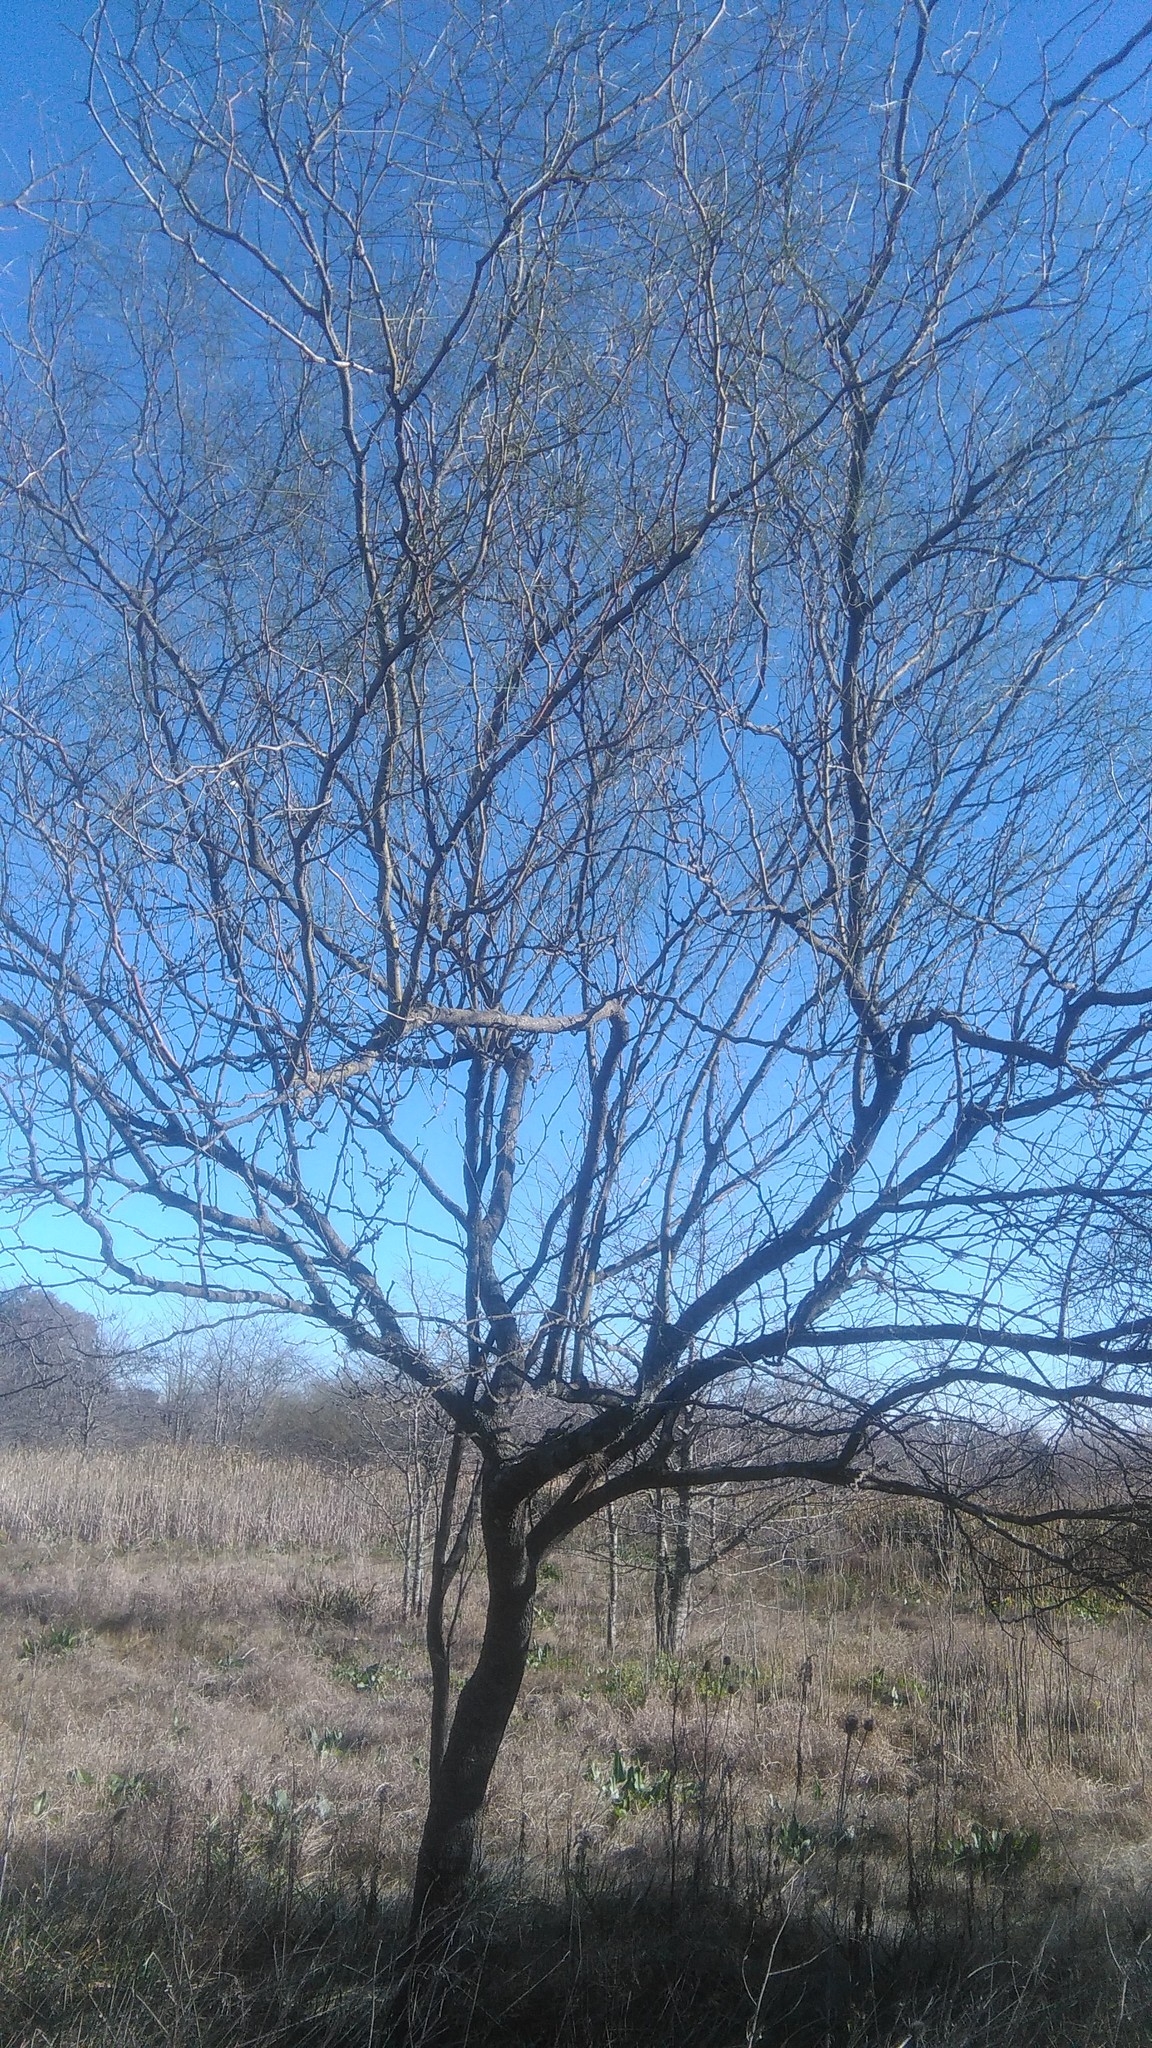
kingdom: Plantae
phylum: Tracheophyta
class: Magnoliopsida
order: Fabales
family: Fabaceae
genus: Parkinsonia
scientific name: Parkinsonia aculeata
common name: Jerusalem thorn
